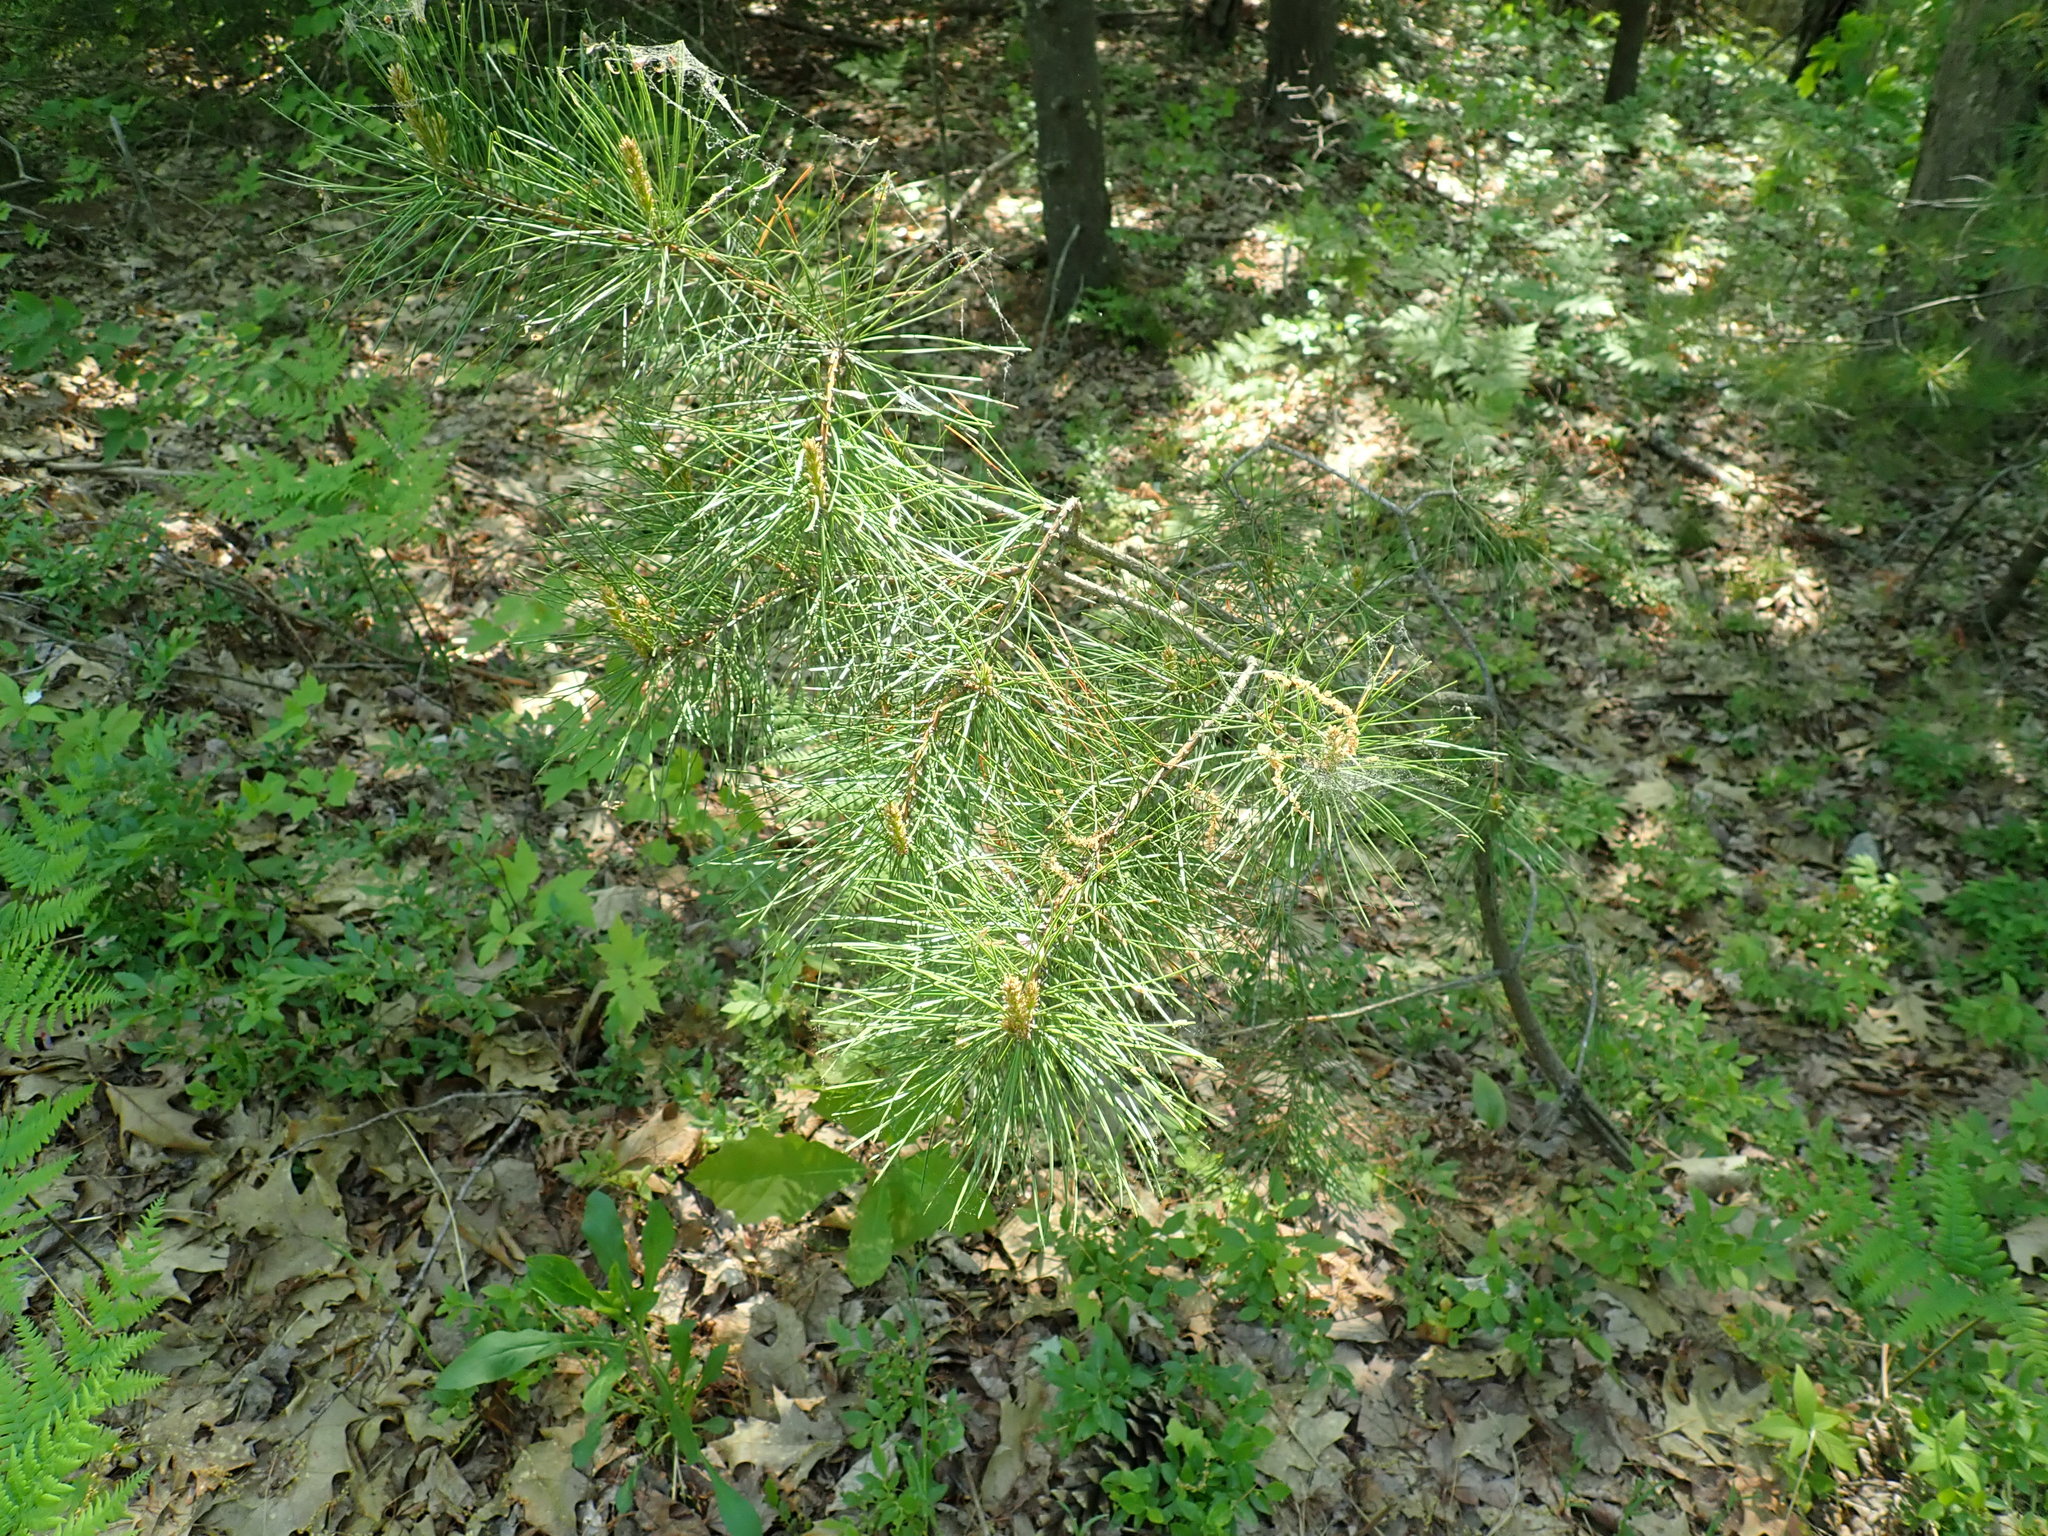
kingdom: Plantae
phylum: Tracheophyta
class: Pinopsida
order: Pinales
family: Pinaceae
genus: Pinus
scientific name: Pinus rigida
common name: Pitch pine
